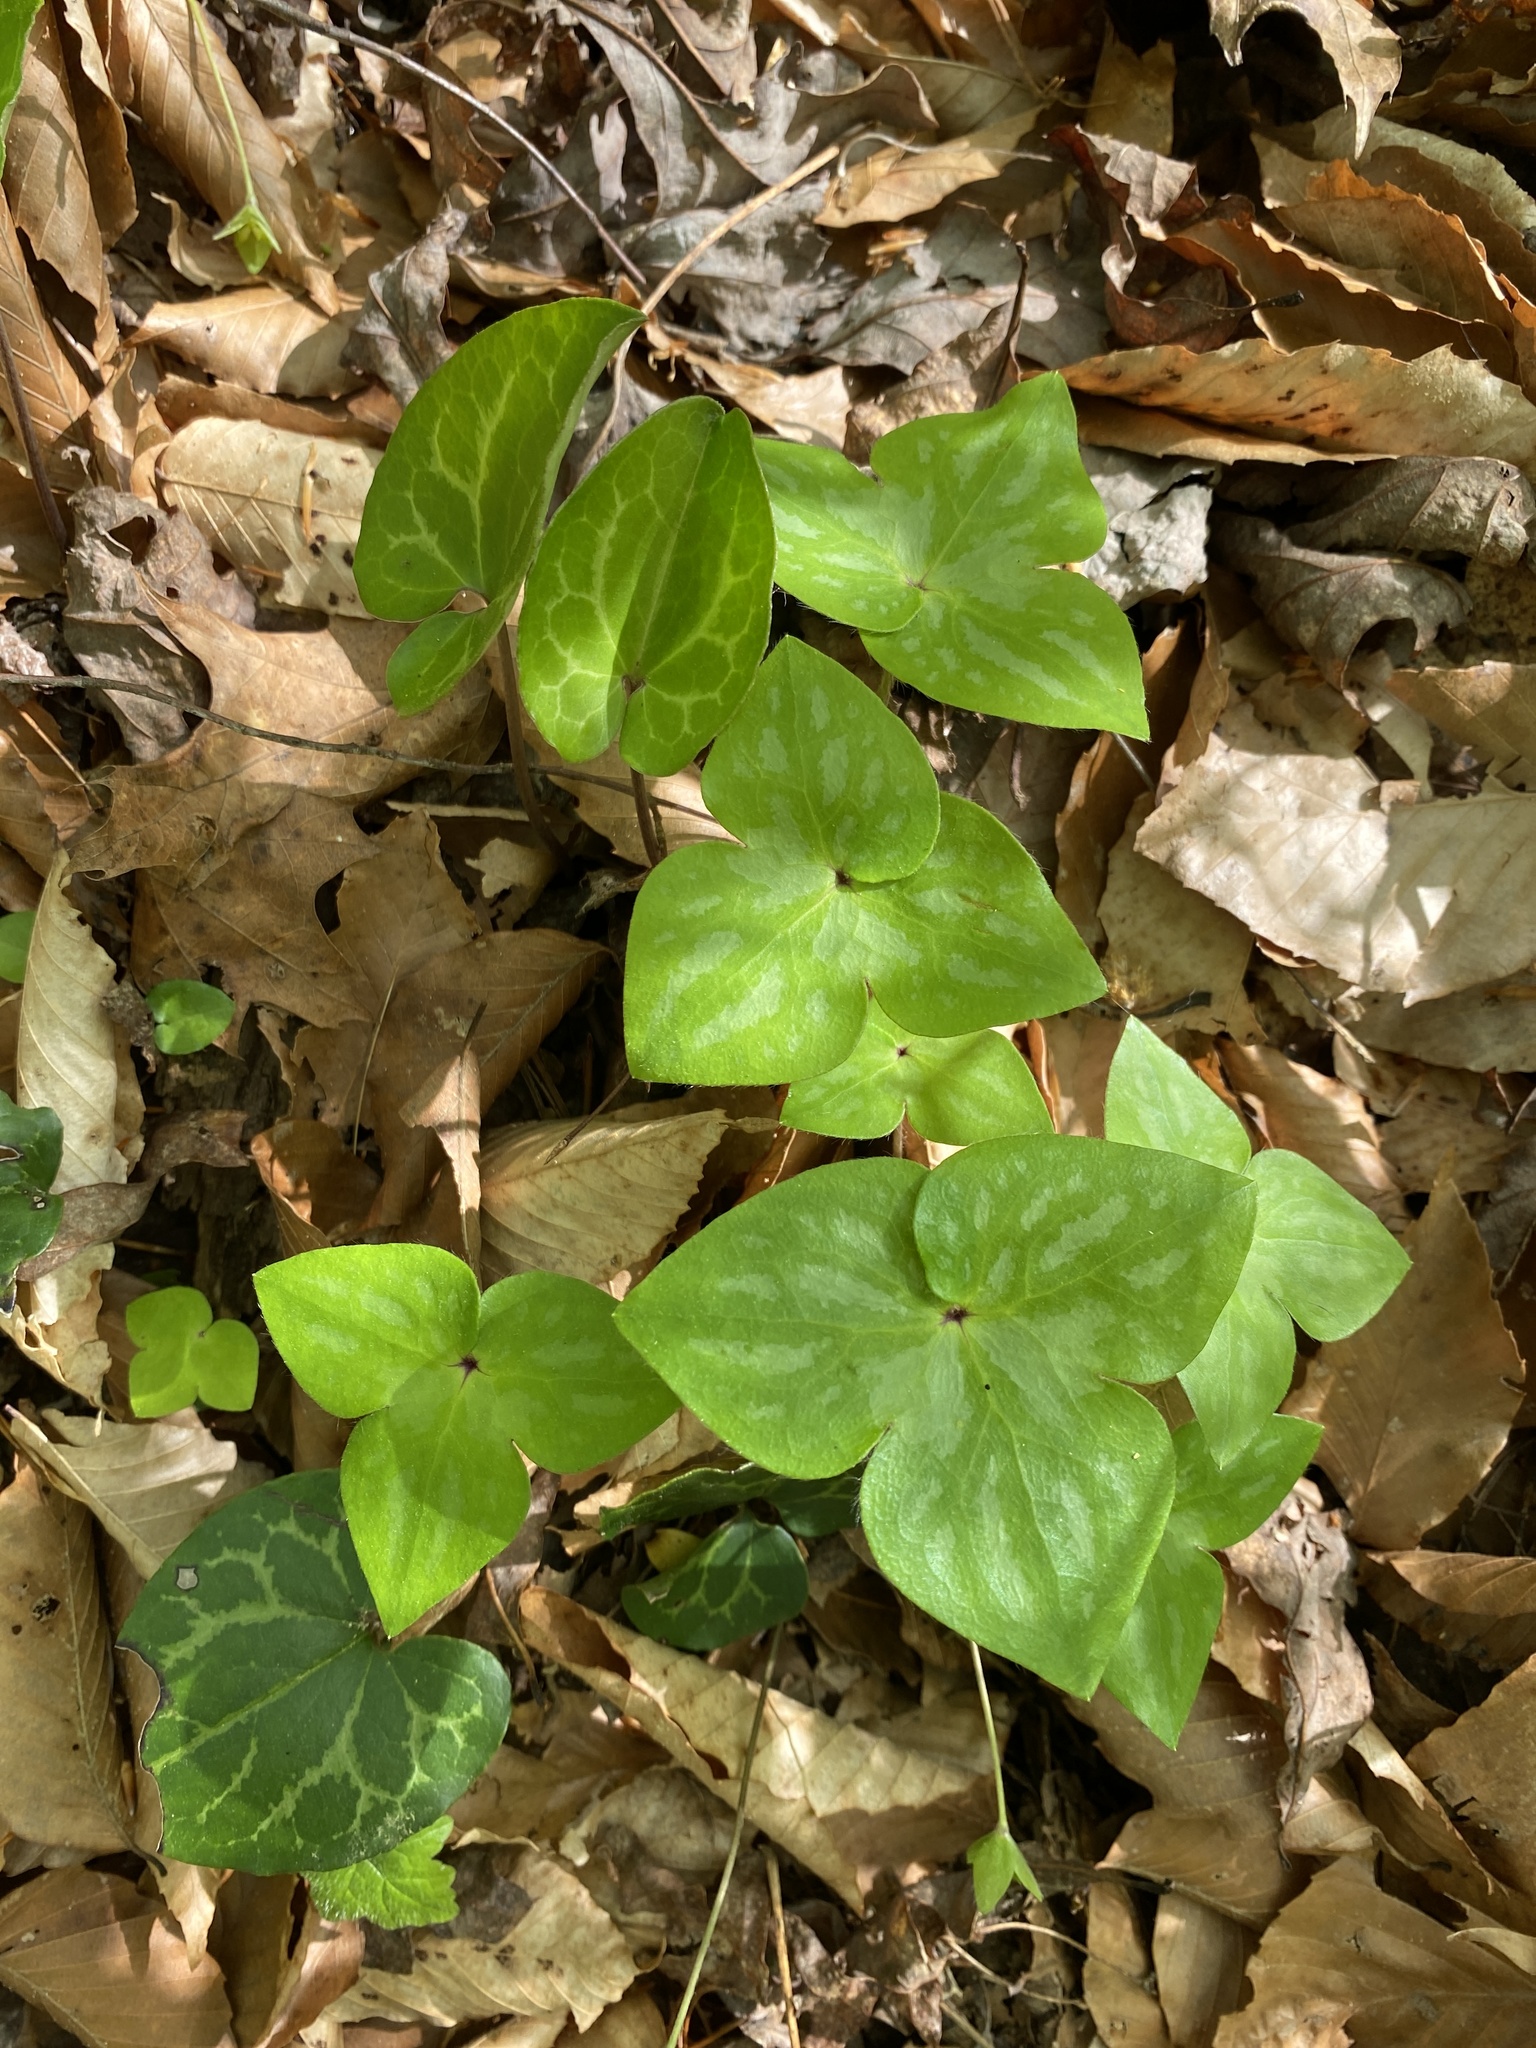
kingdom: Plantae
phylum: Tracheophyta
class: Magnoliopsida
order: Ranunculales
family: Ranunculaceae
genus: Hepatica
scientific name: Hepatica acutiloba
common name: Sharp-lobed hepatica
